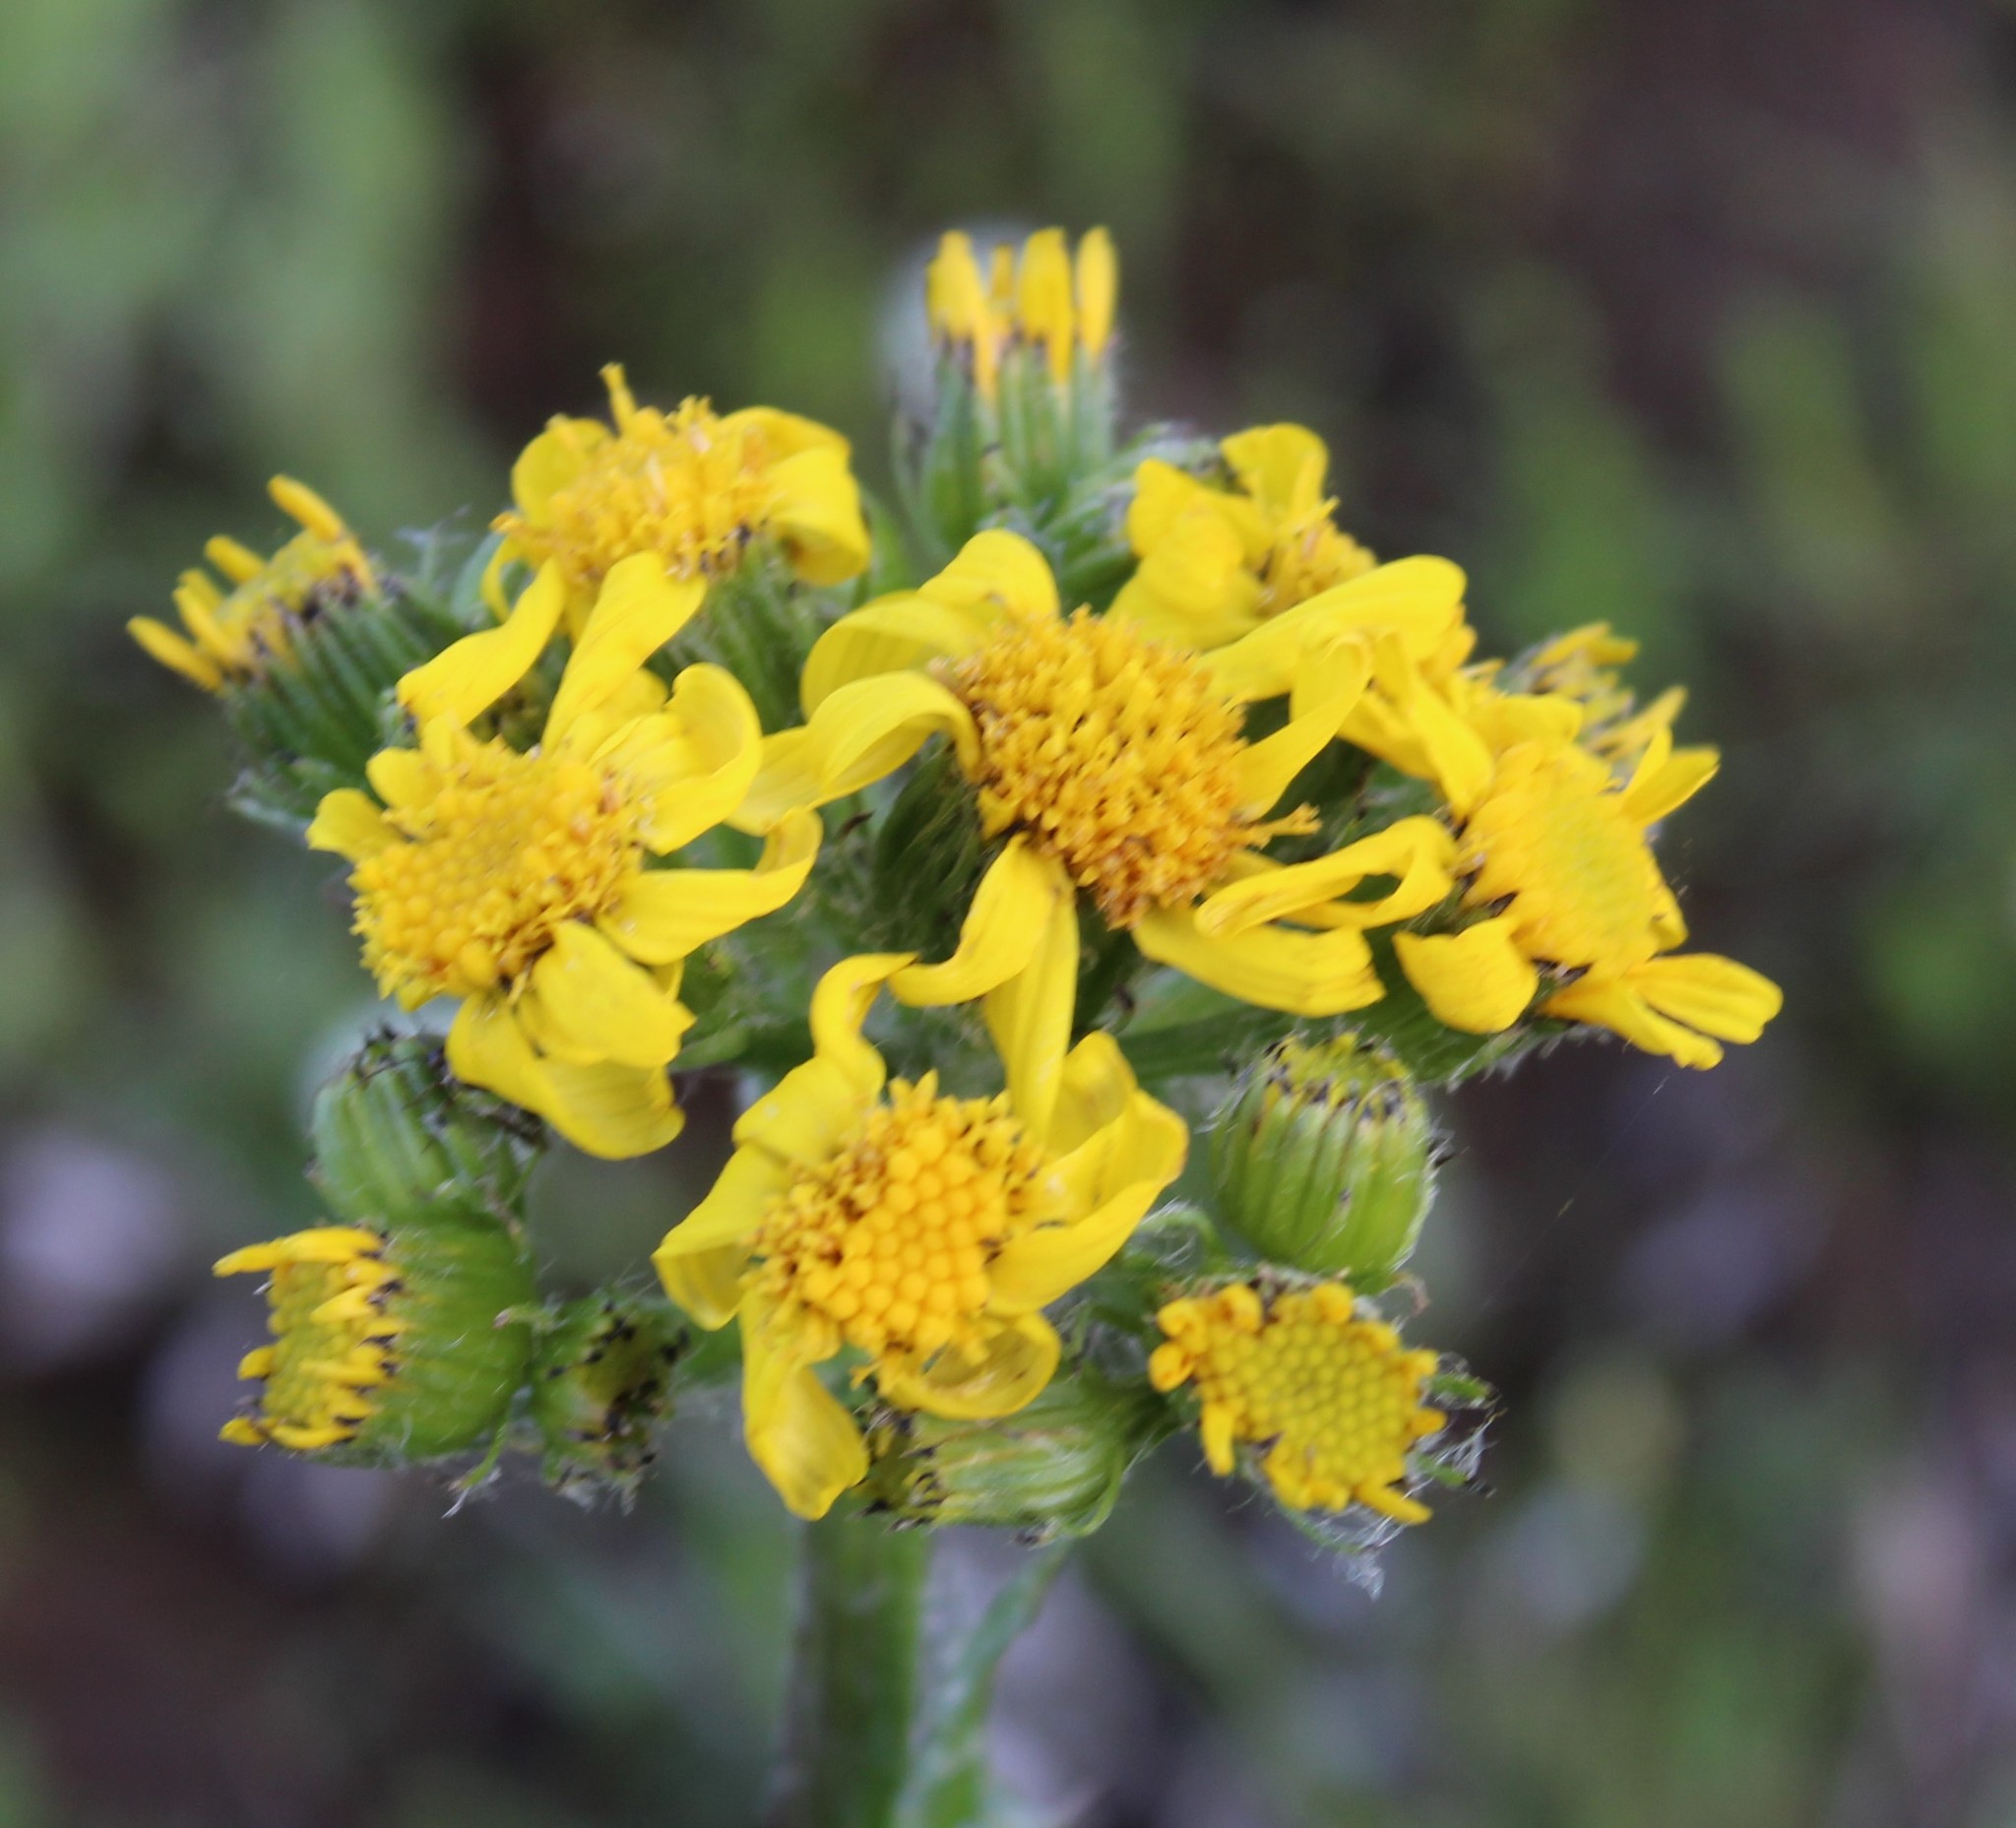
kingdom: Plantae
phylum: Tracheophyta
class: Magnoliopsida
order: Asterales
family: Asteraceae
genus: Senecio
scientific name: Senecio crassulus
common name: Mountain-meadow butterweed
